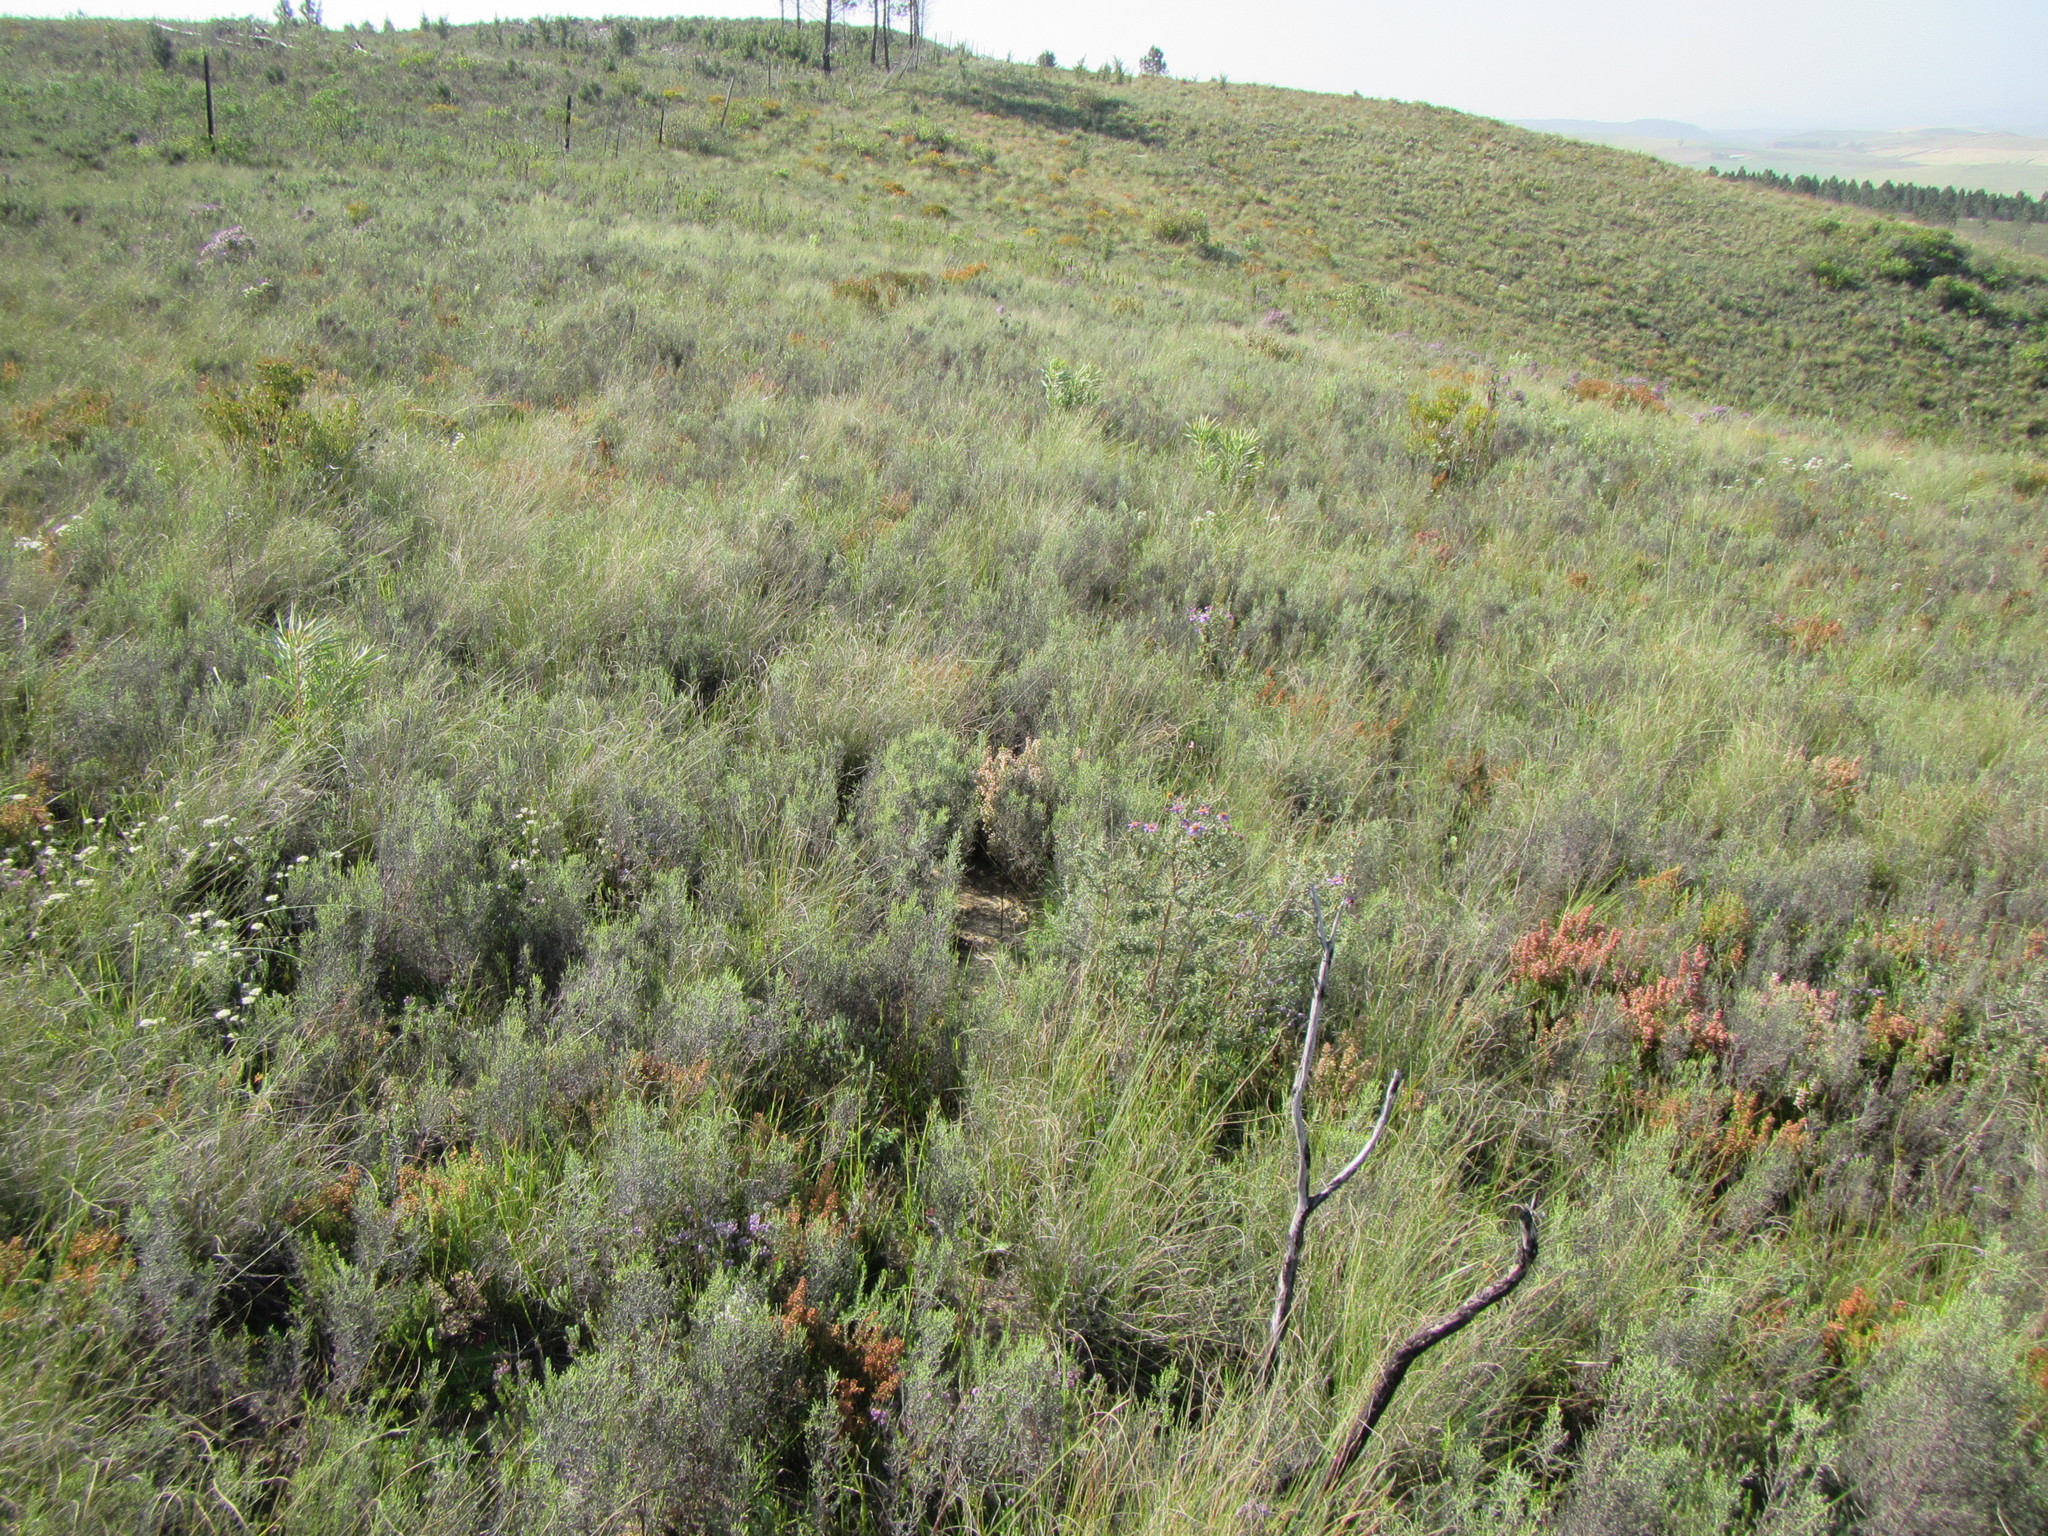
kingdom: Plantae
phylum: Tracheophyta
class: Magnoliopsida
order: Asterales
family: Asteraceae
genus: Dicerothamnus
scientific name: Dicerothamnus rhinocerotis
